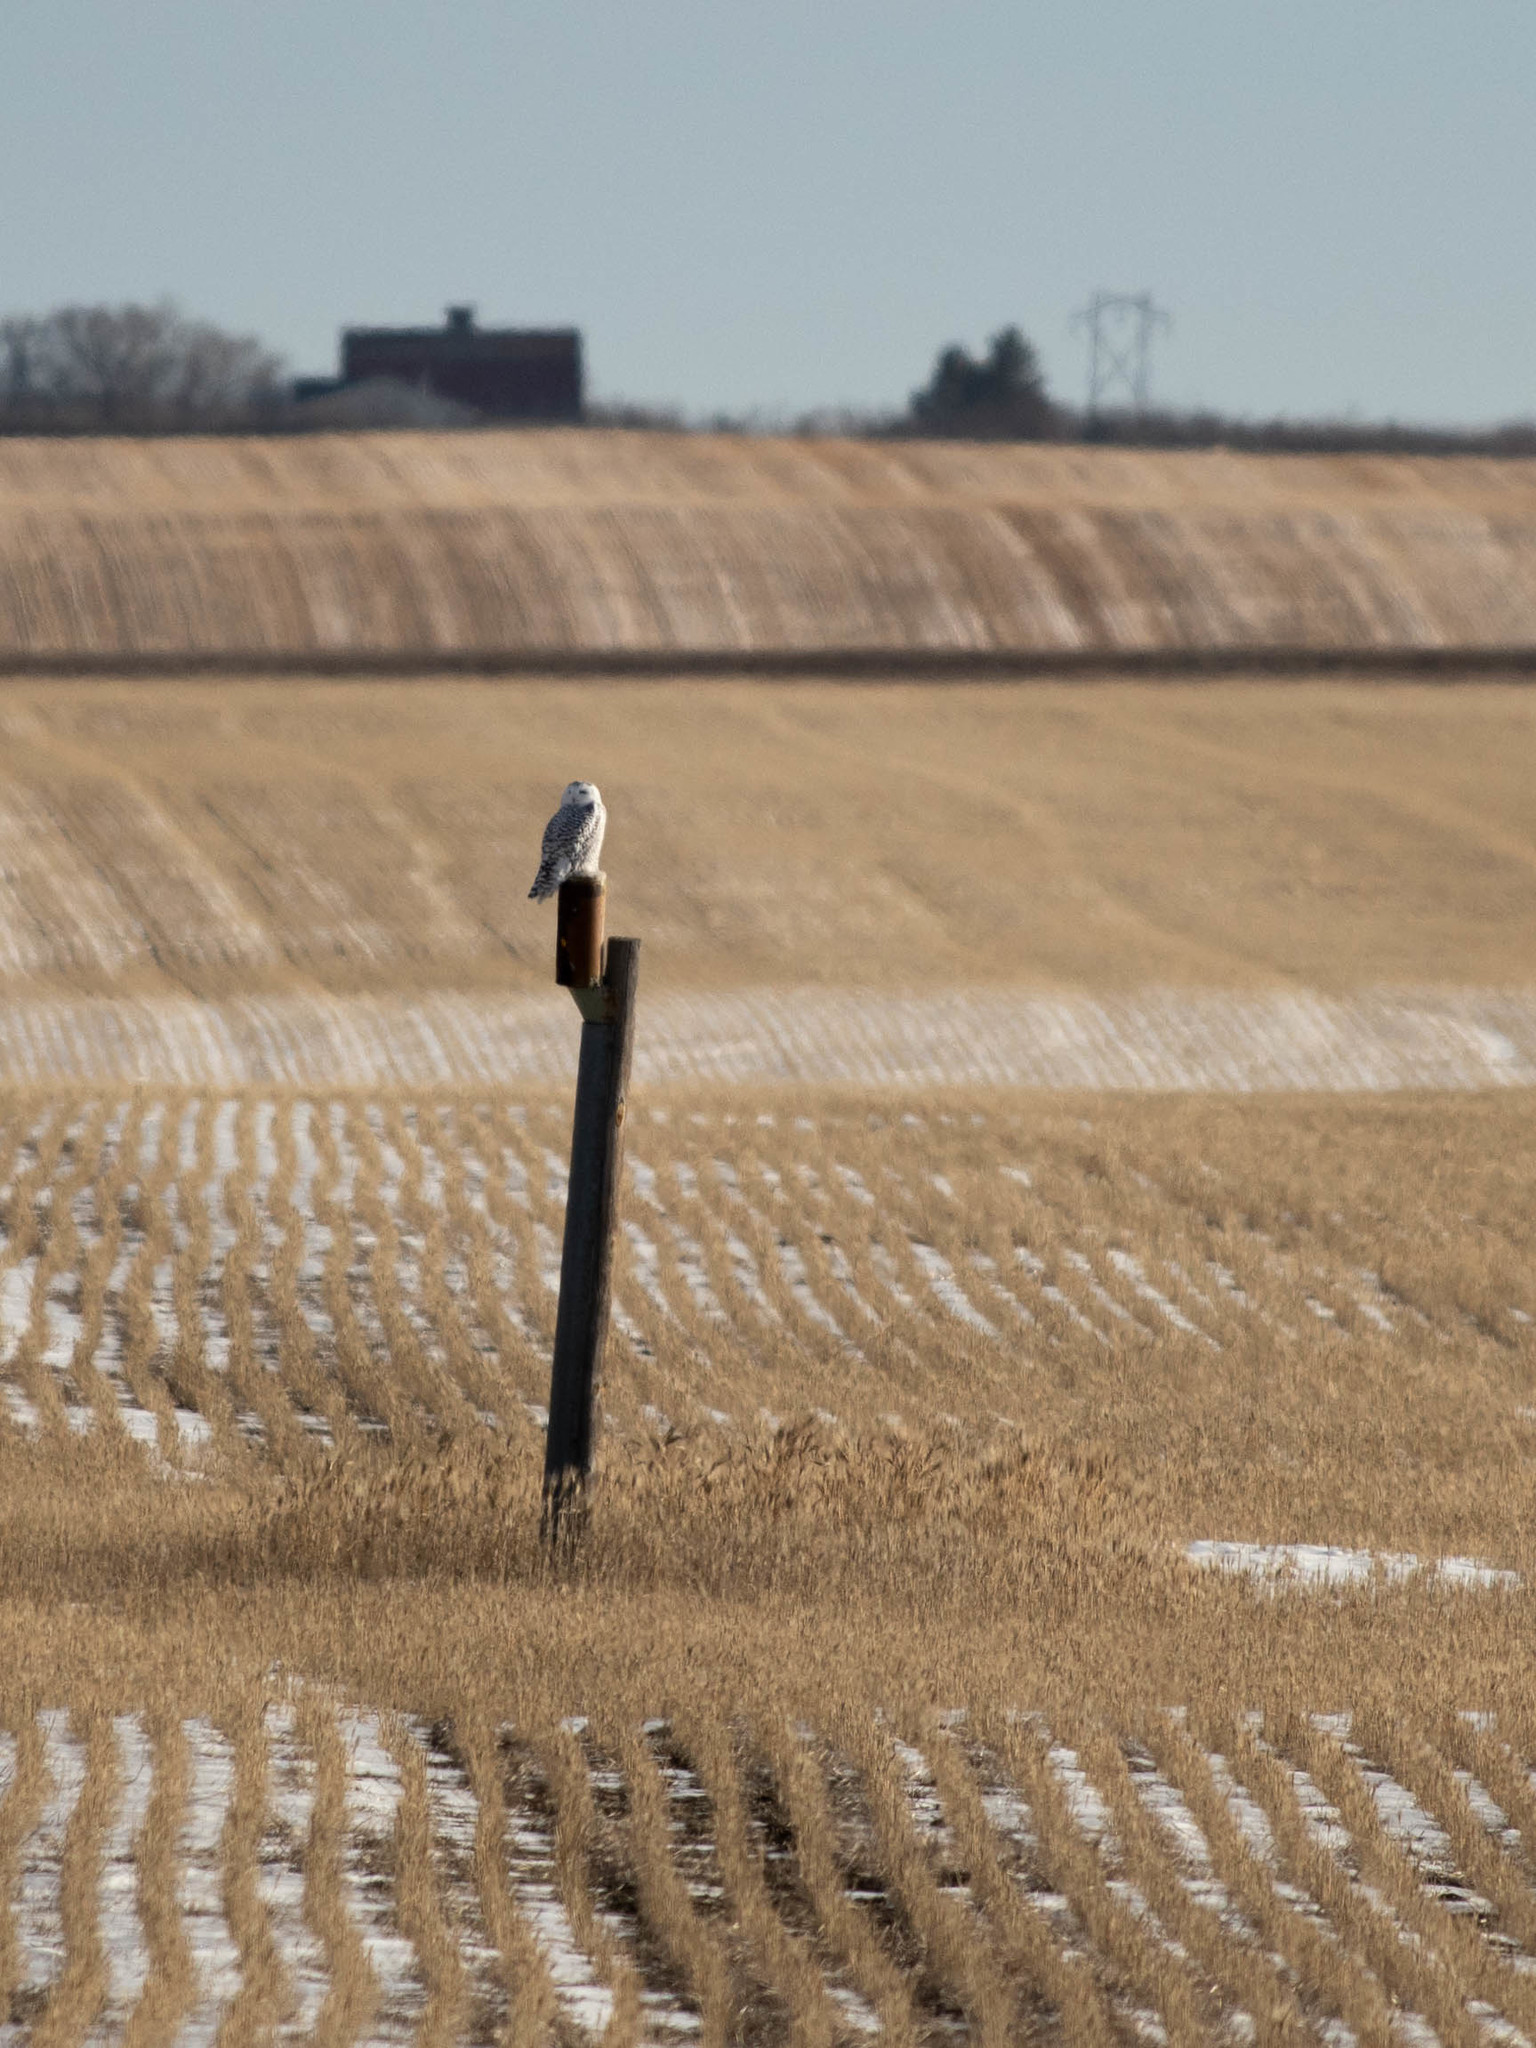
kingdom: Animalia
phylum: Chordata
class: Aves
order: Strigiformes
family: Strigidae
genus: Bubo
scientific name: Bubo scandiacus
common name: Snowy owl
